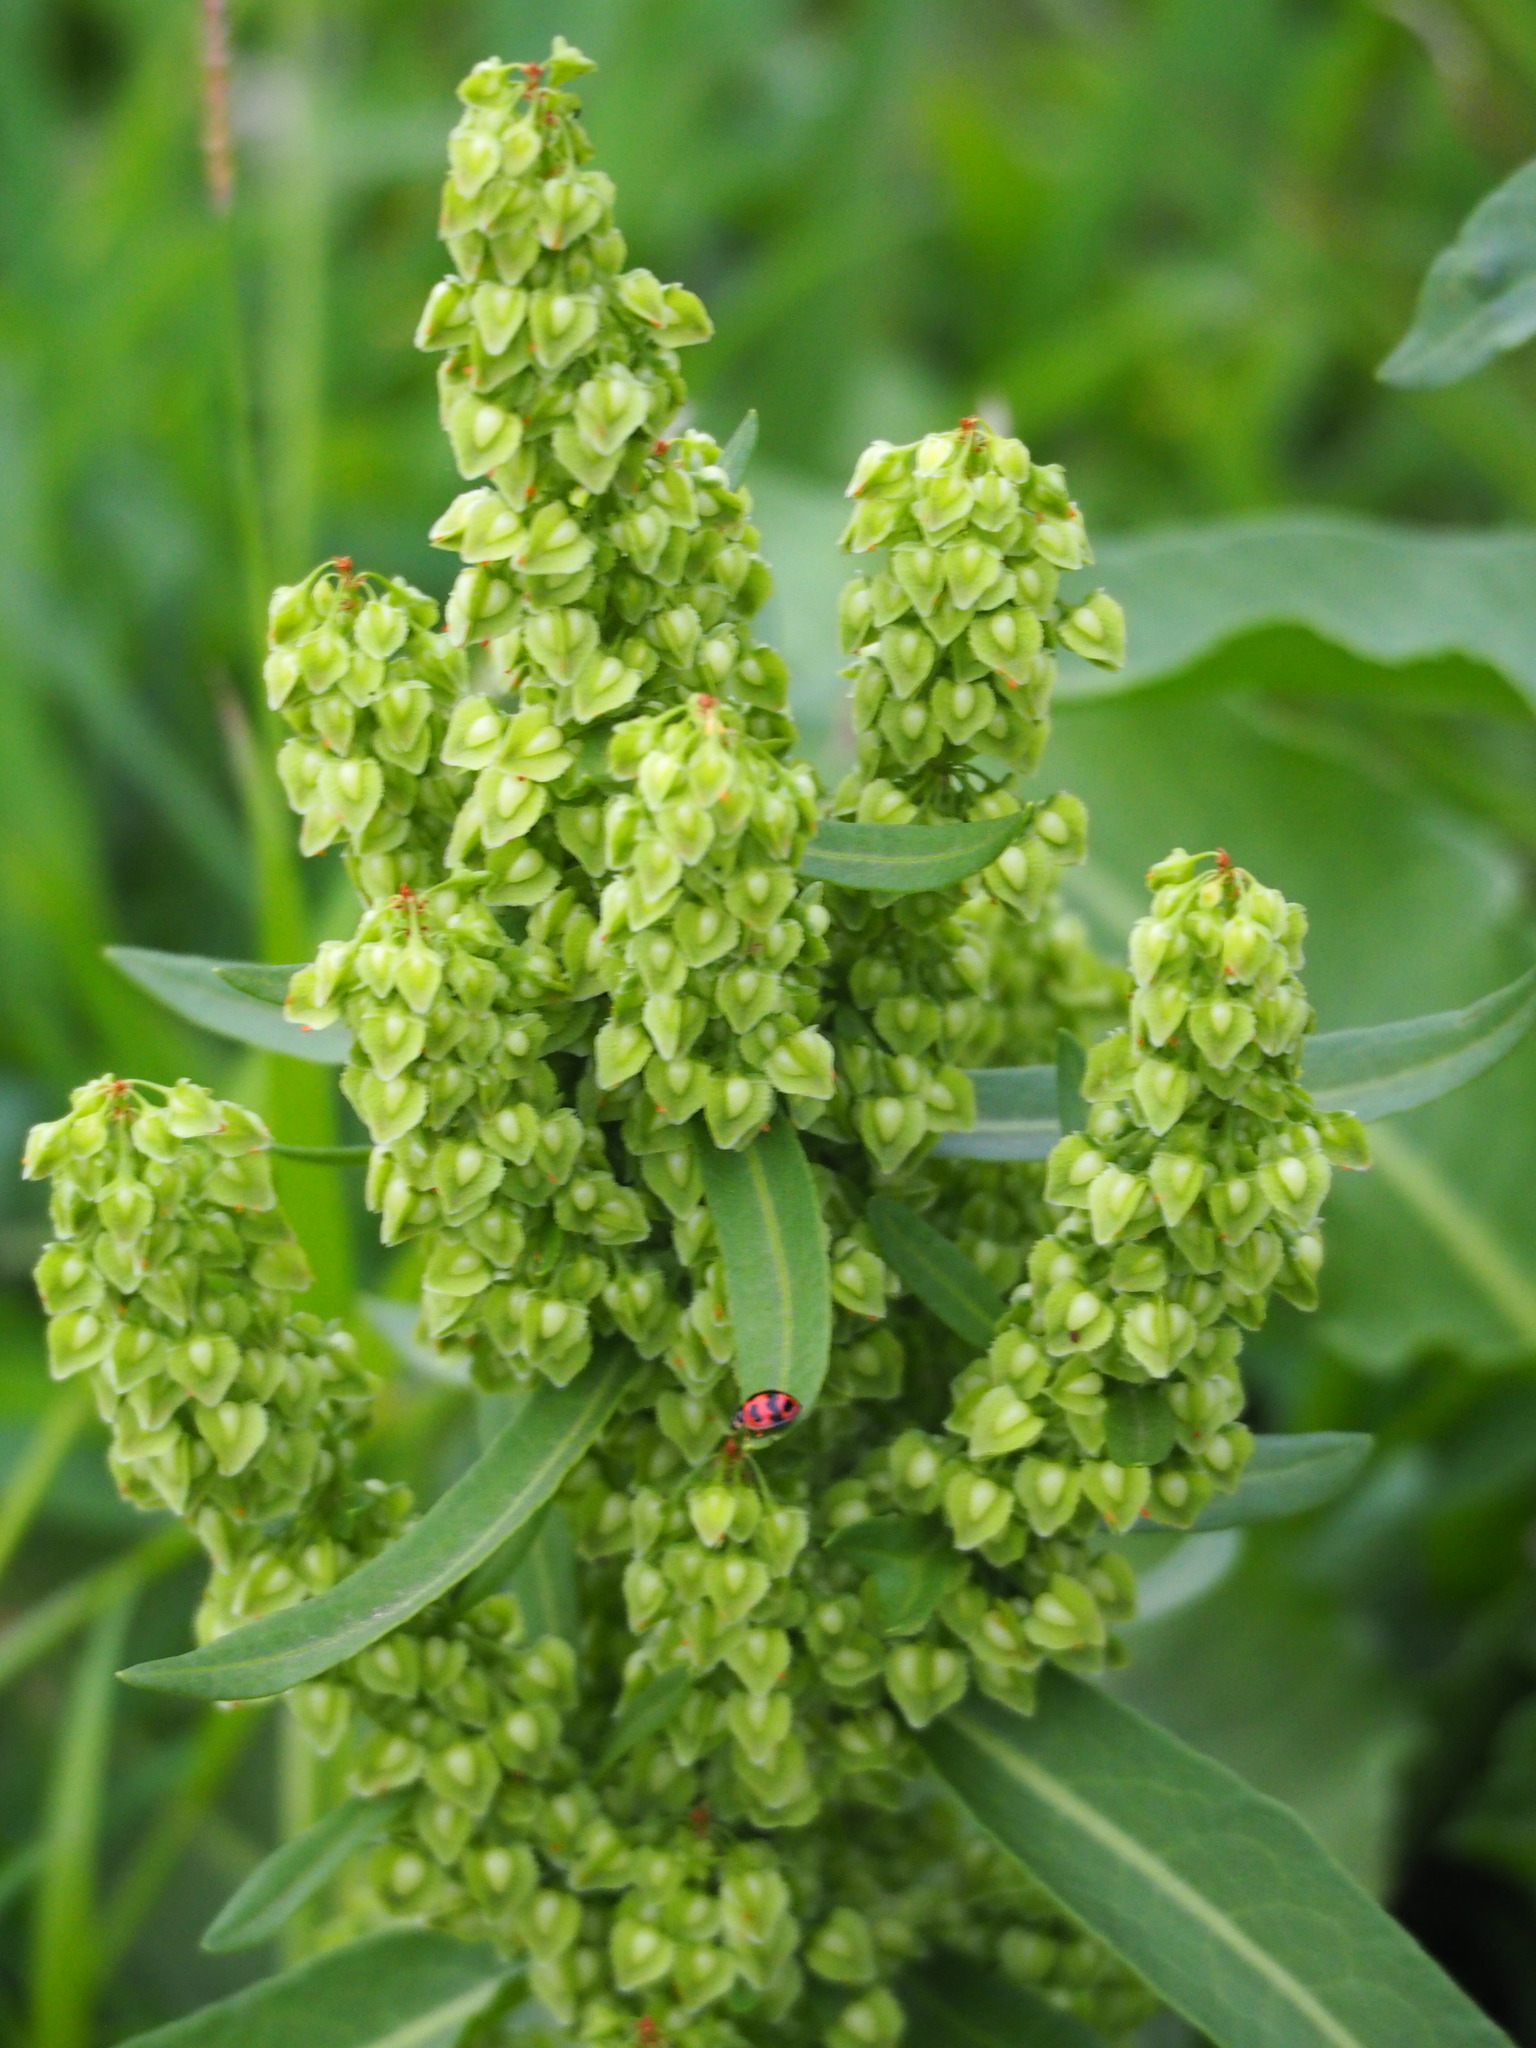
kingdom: Plantae
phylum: Tracheophyta
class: Magnoliopsida
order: Caryophyllales
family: Polygonaceae
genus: Rumex
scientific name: Rumex japonicus
